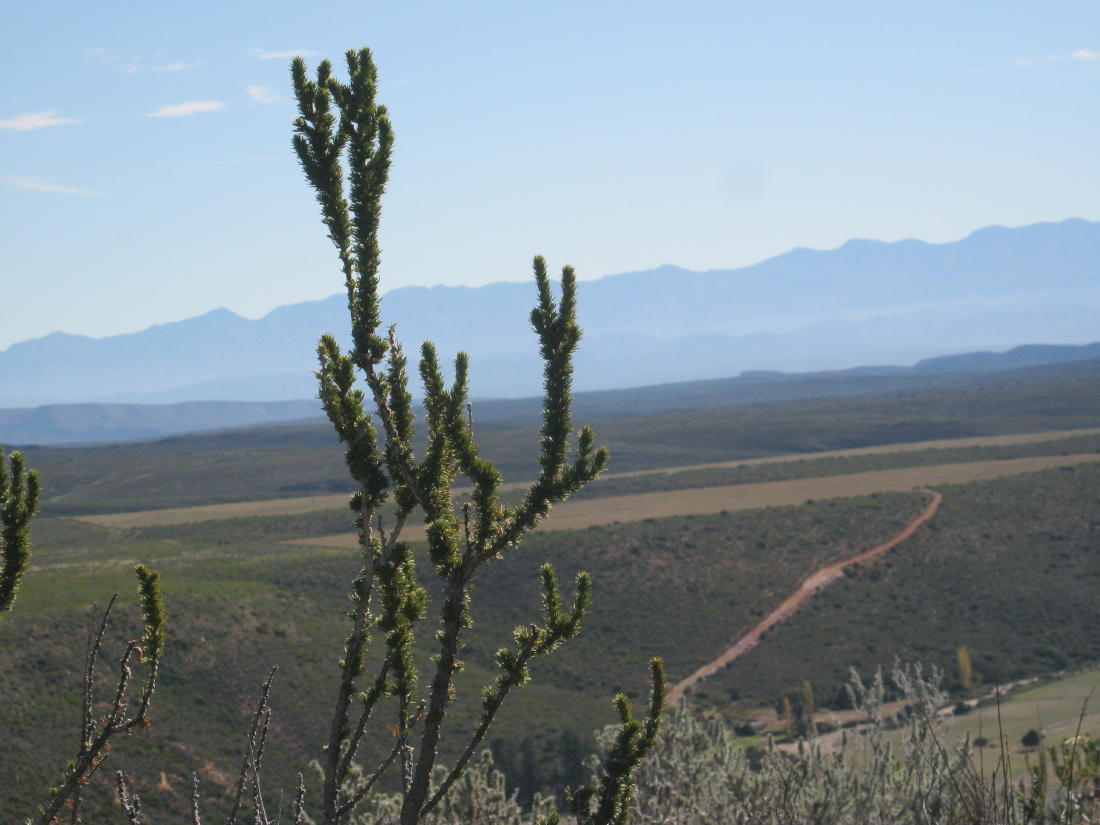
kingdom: Plantae
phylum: Tracheophyta
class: Magnoliopsida
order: Fabales
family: Fabaceae
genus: Aspalathus
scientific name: Aspalathus sceptrumaureum
